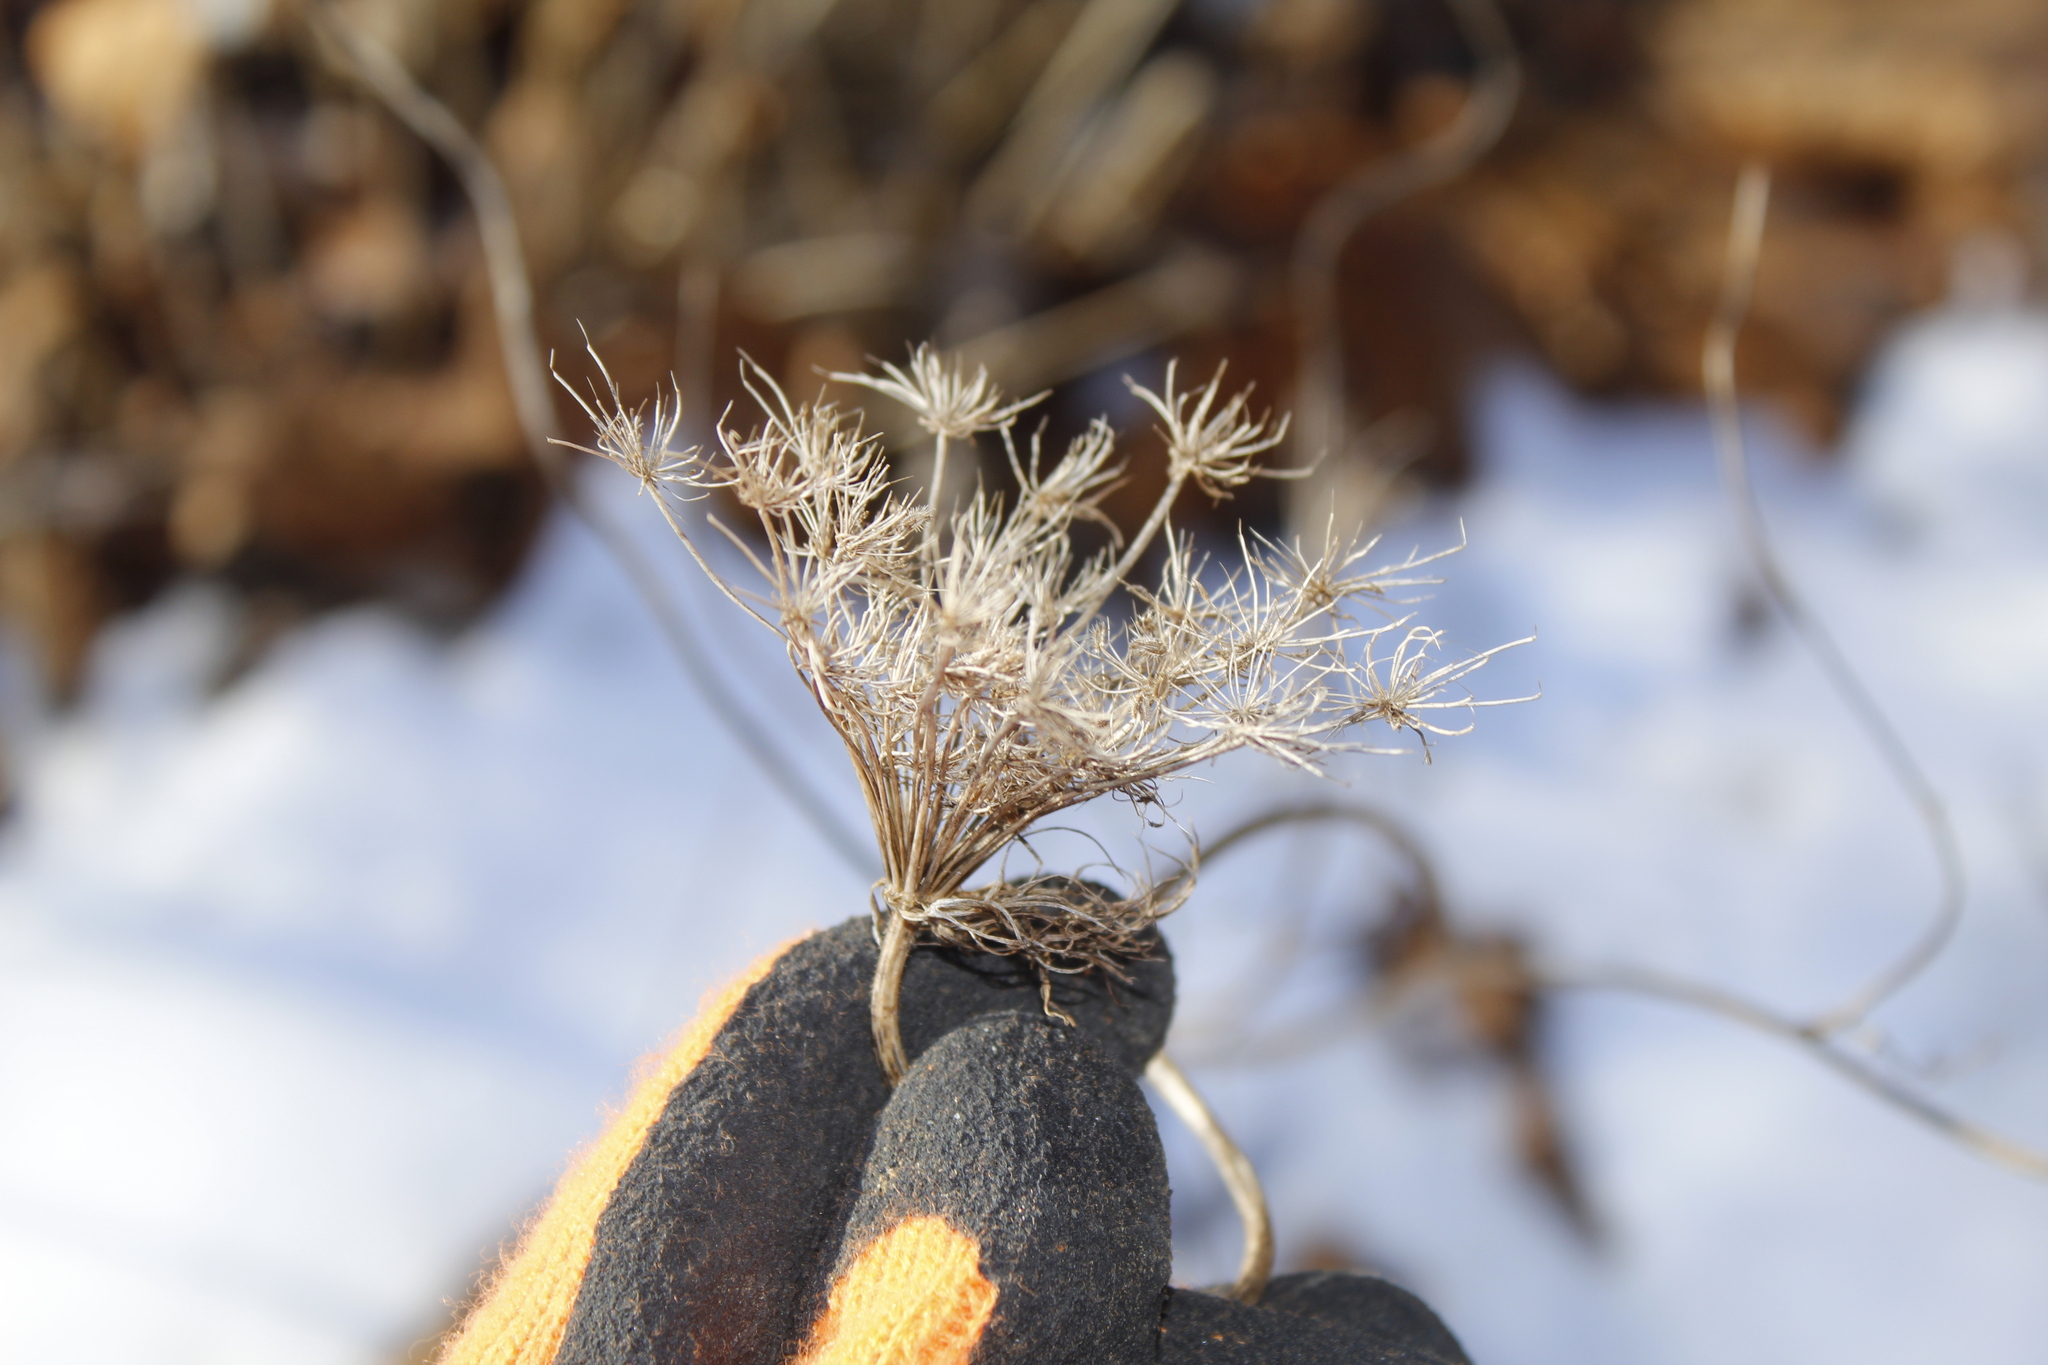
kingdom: Plantae
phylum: Tracheophyta
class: Magnoliopsida
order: Apiales
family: Apiaceae
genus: Daucus
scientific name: Daucus carota
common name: Wild carrot
